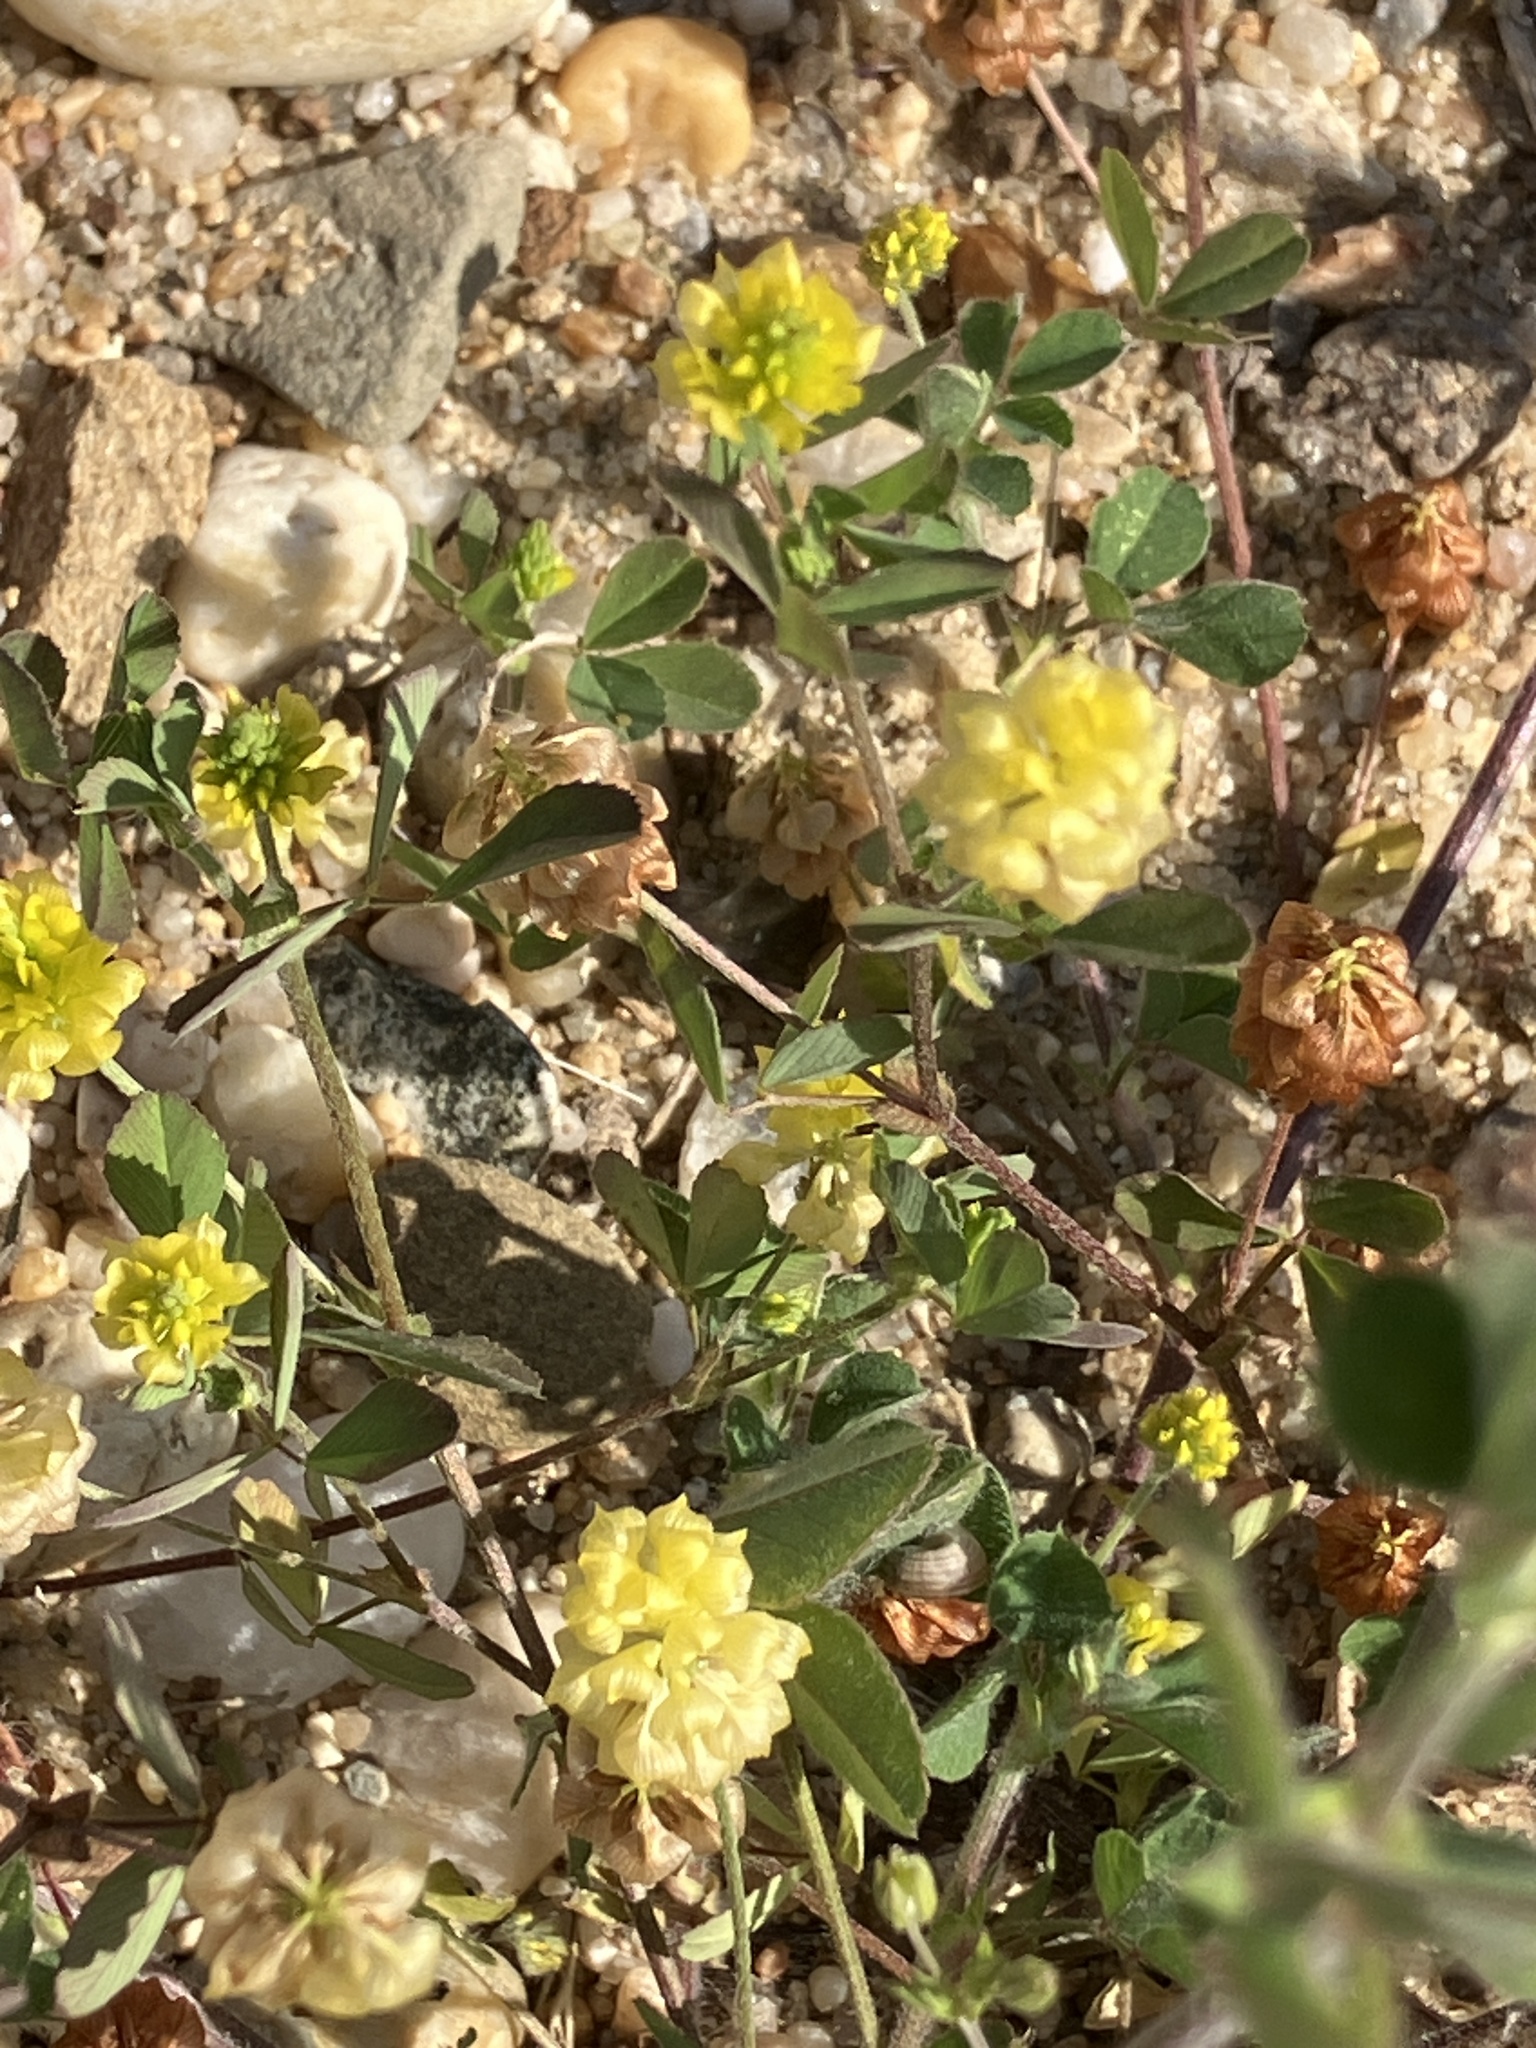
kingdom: Plantae
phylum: Tracheophyta
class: Magnoliopsida
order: Fabales
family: Fabaceae
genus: Trifolium
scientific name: Trifolium campestre
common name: Field clover
